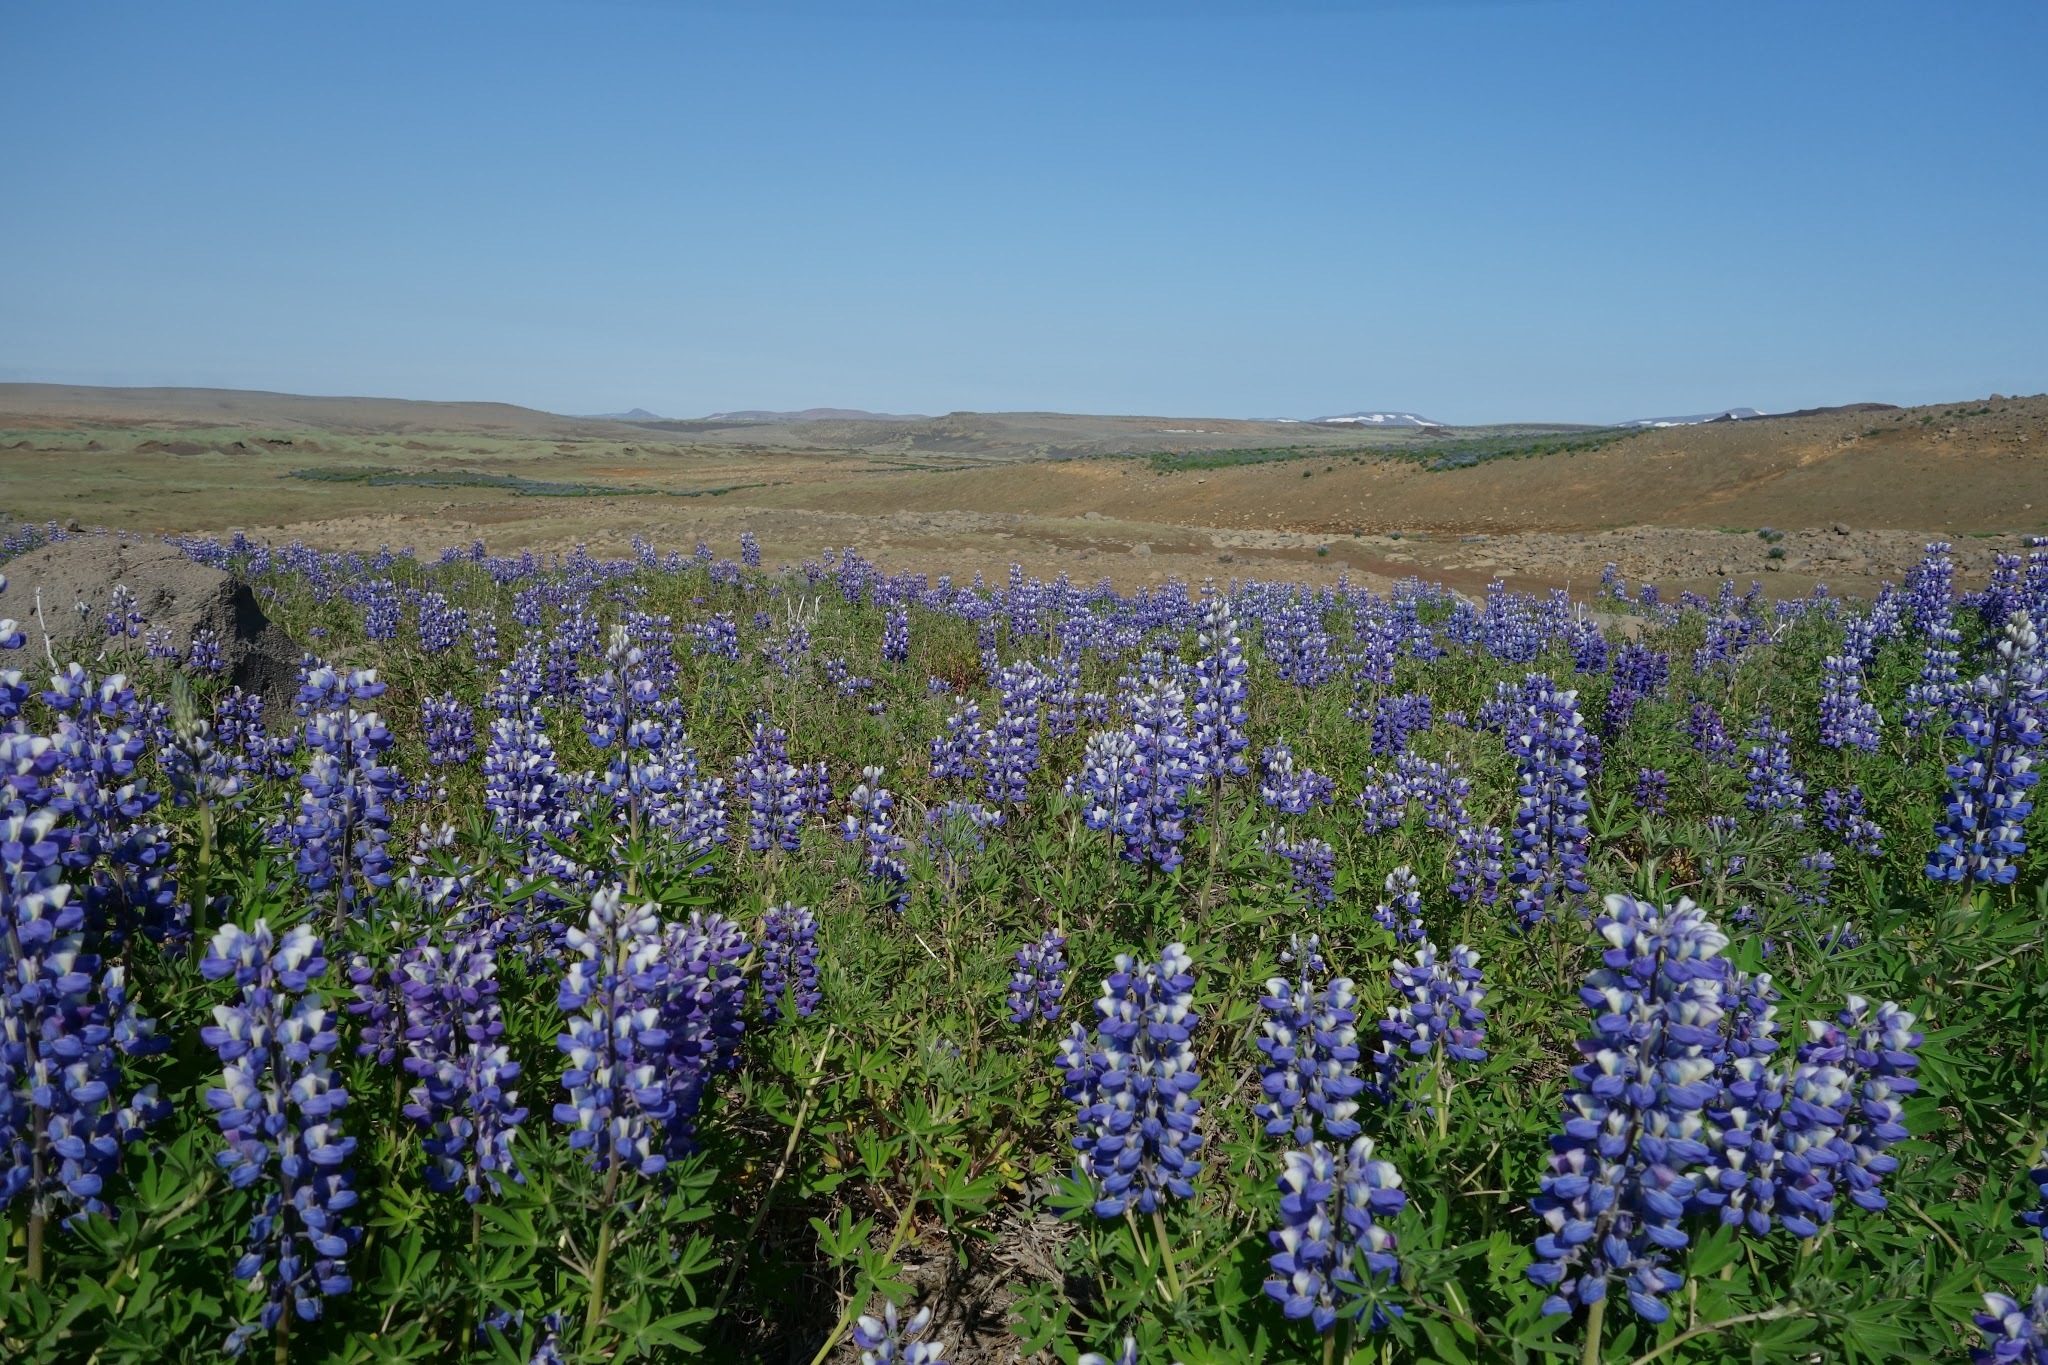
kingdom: Plantae
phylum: Tracheophyta
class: Magnoliopsida
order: Fabales
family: Fabaceae
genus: Lupinus
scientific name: Lupinus nootkatensis
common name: Nootka lupine
